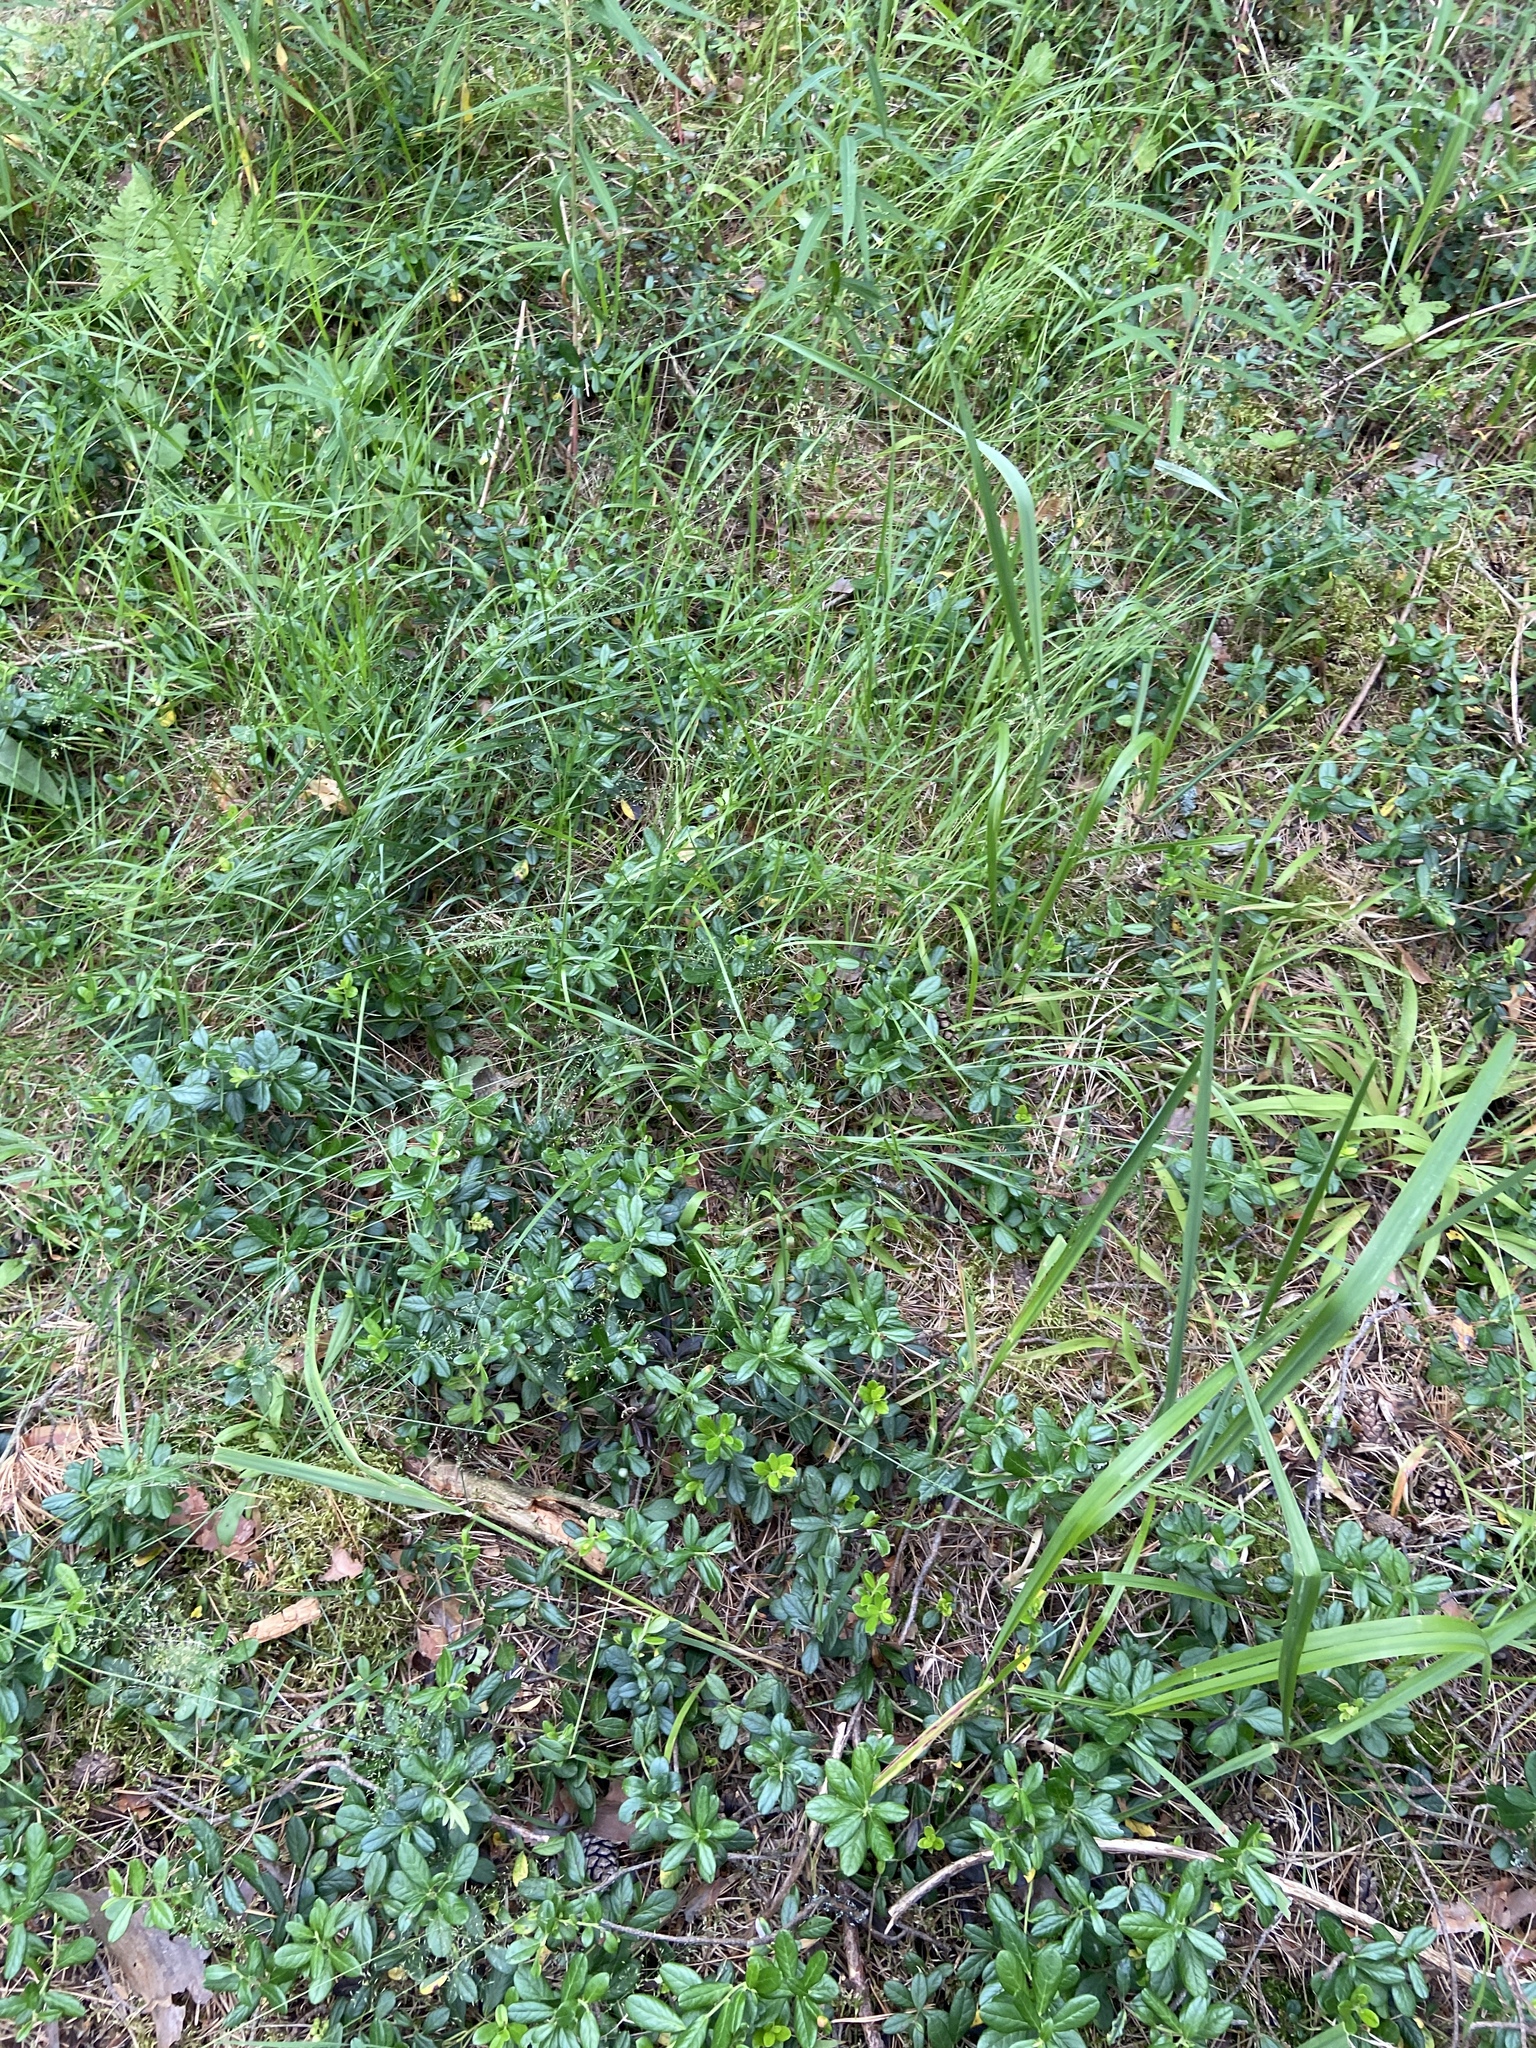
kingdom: Plantae
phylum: Tracheophyta
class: Magnoliopsida
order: Ericales
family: Ericaceae
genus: Vaccinium
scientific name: Vaccinium vitis-idaea
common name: Cowberry
